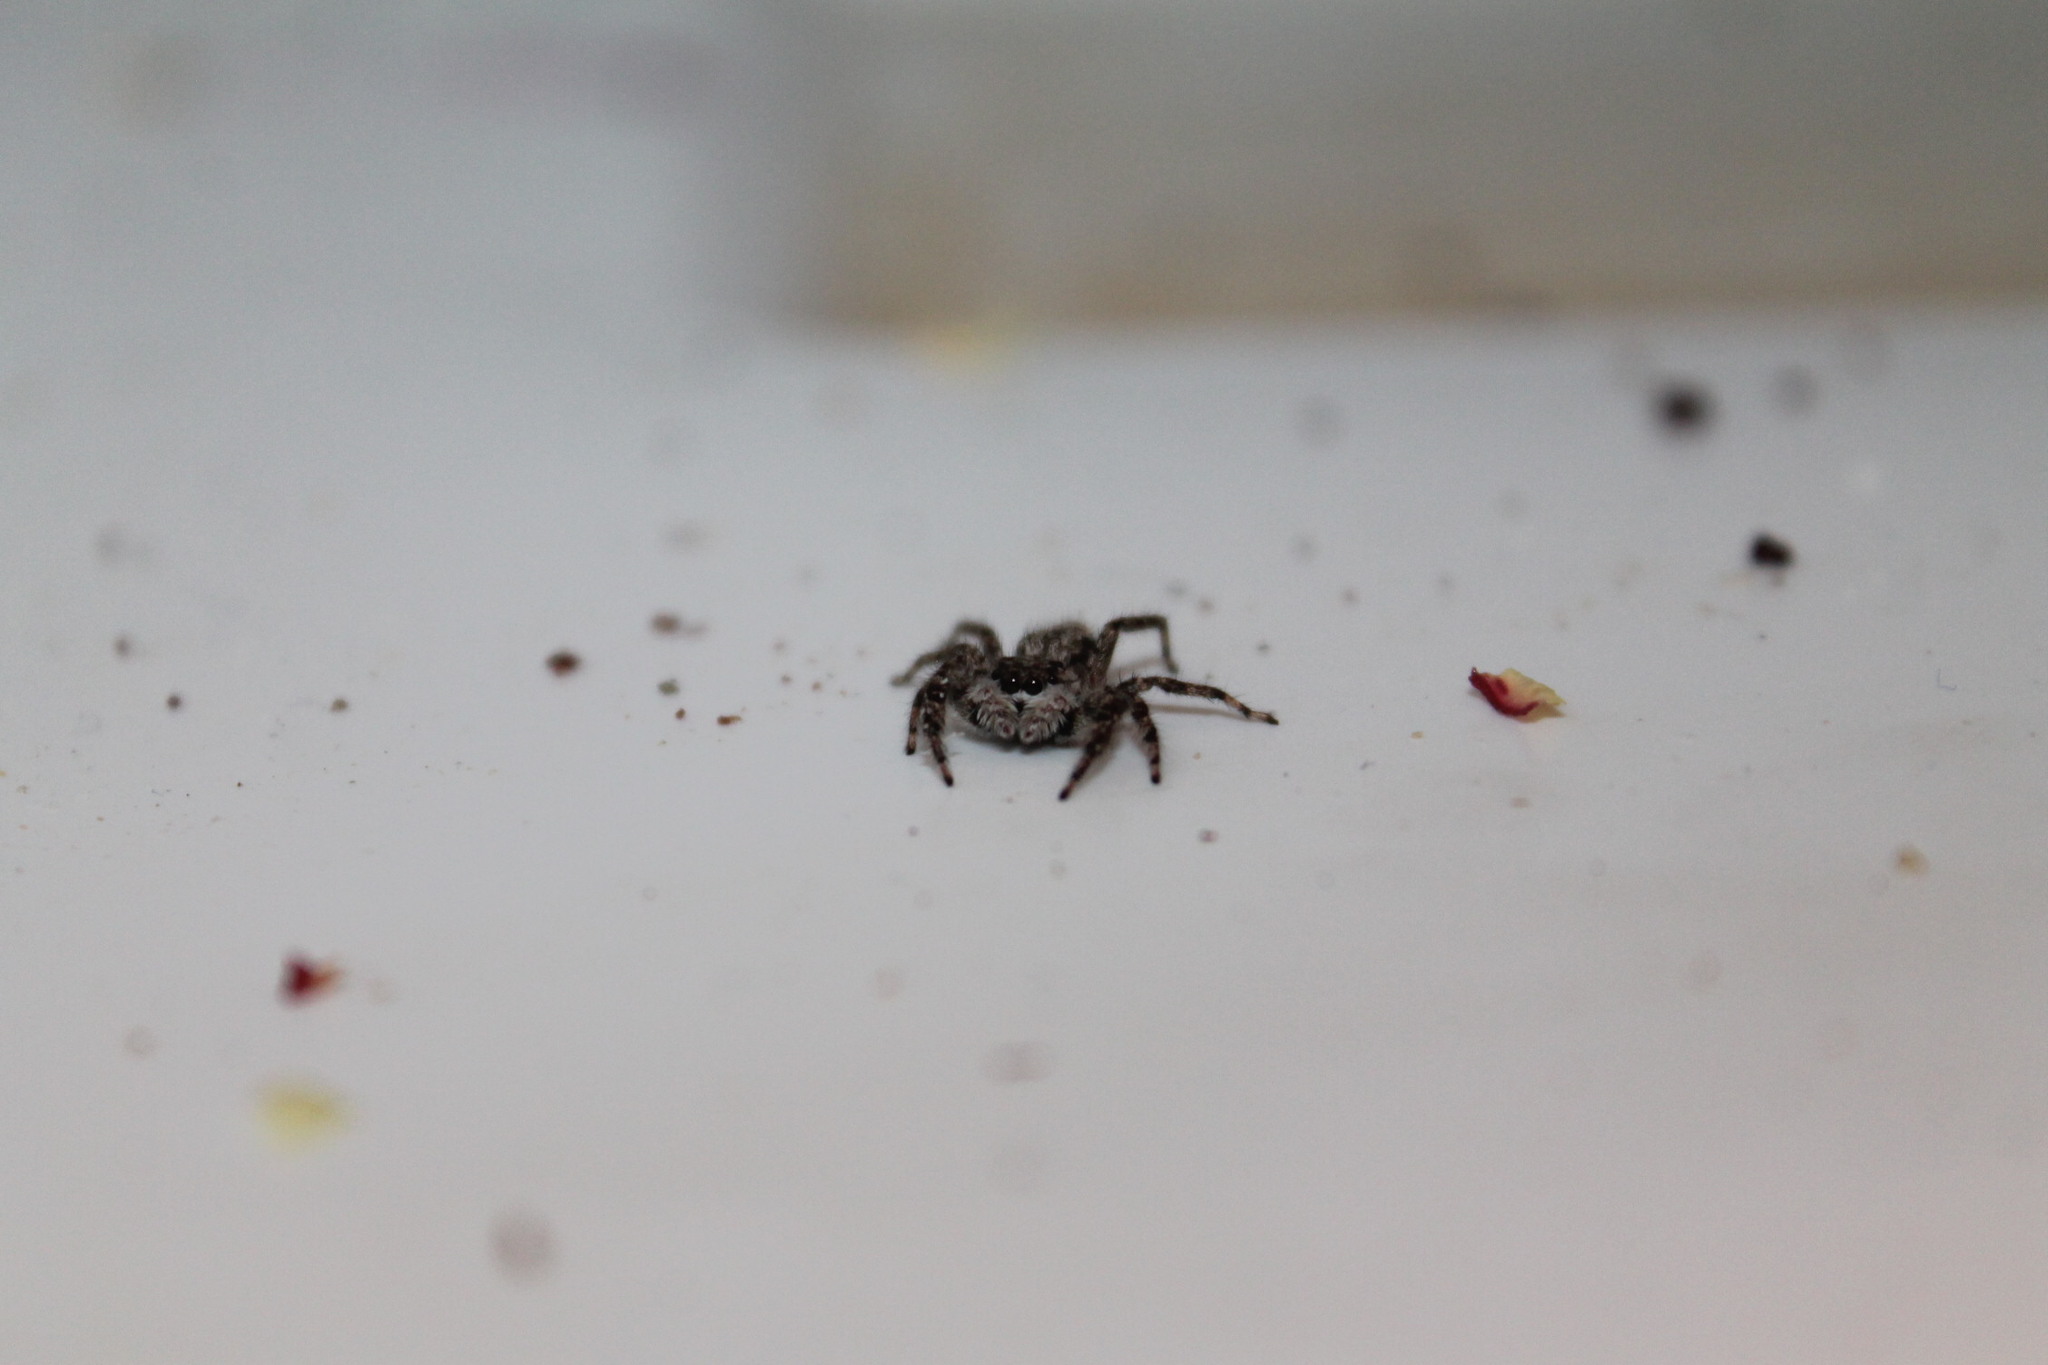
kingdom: Animalia
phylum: Arthropoda
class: Arachnida
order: Araneae
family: Salticidae
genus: Platycryptus
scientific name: Platycryptus undatus
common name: Tan jumping spider
